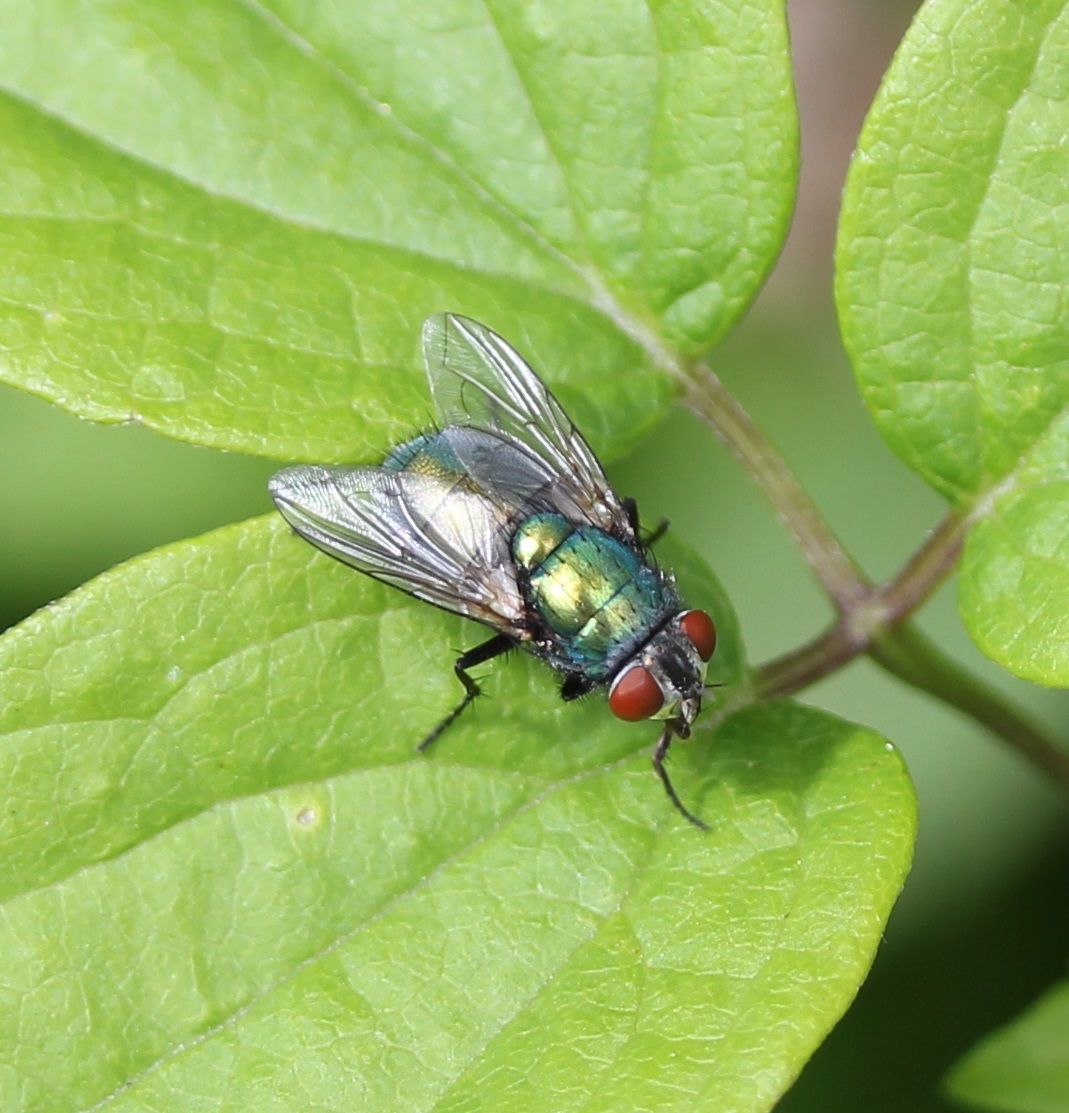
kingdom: Animalia
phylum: Arthropoda
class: Insecta
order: Diptera
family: Calliphoridae
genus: Lucilia
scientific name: Lucilia sericata
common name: Blow fly
